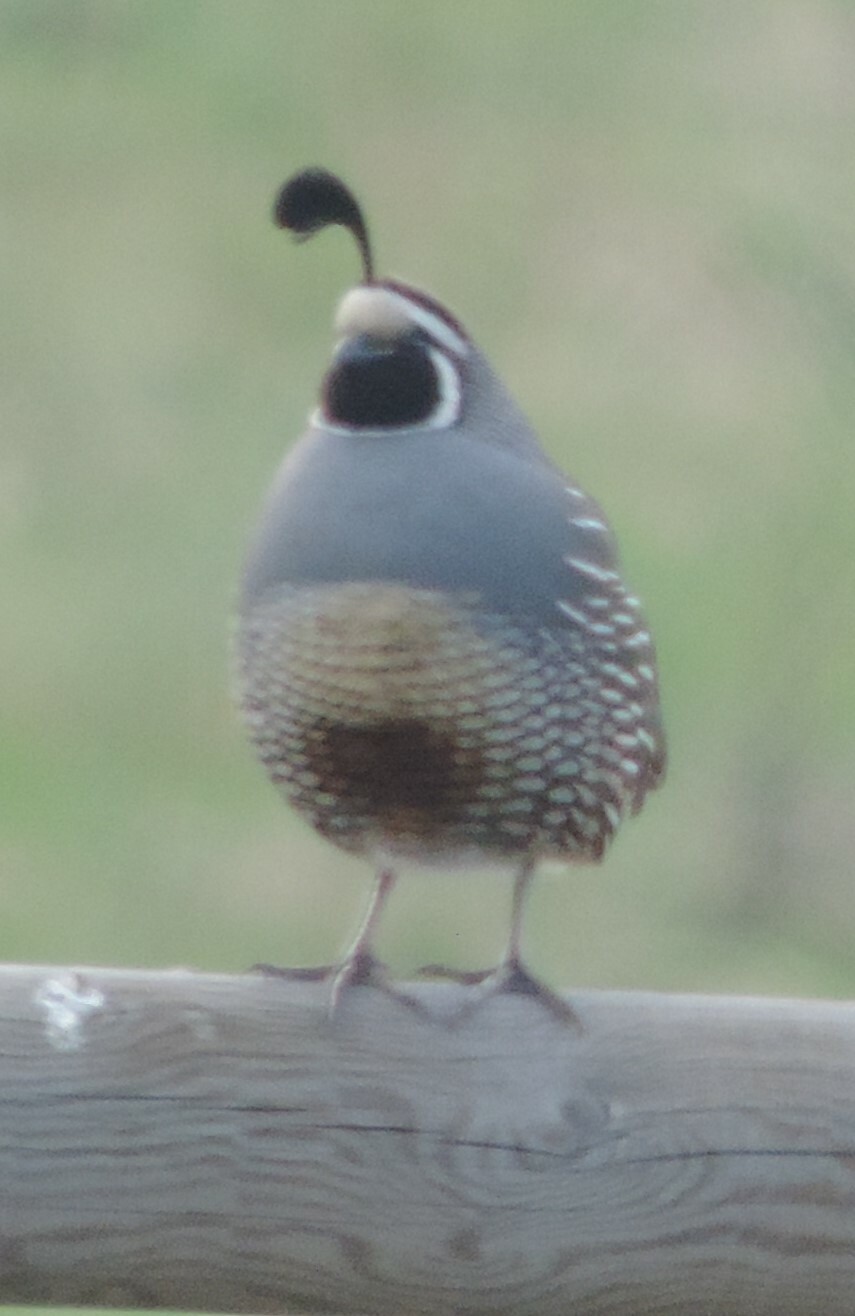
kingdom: Animalia
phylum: Chordata
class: Aves
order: Galliformes
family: Odontophoridae
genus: Callipepla
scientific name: Callipepla californica
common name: California quail
